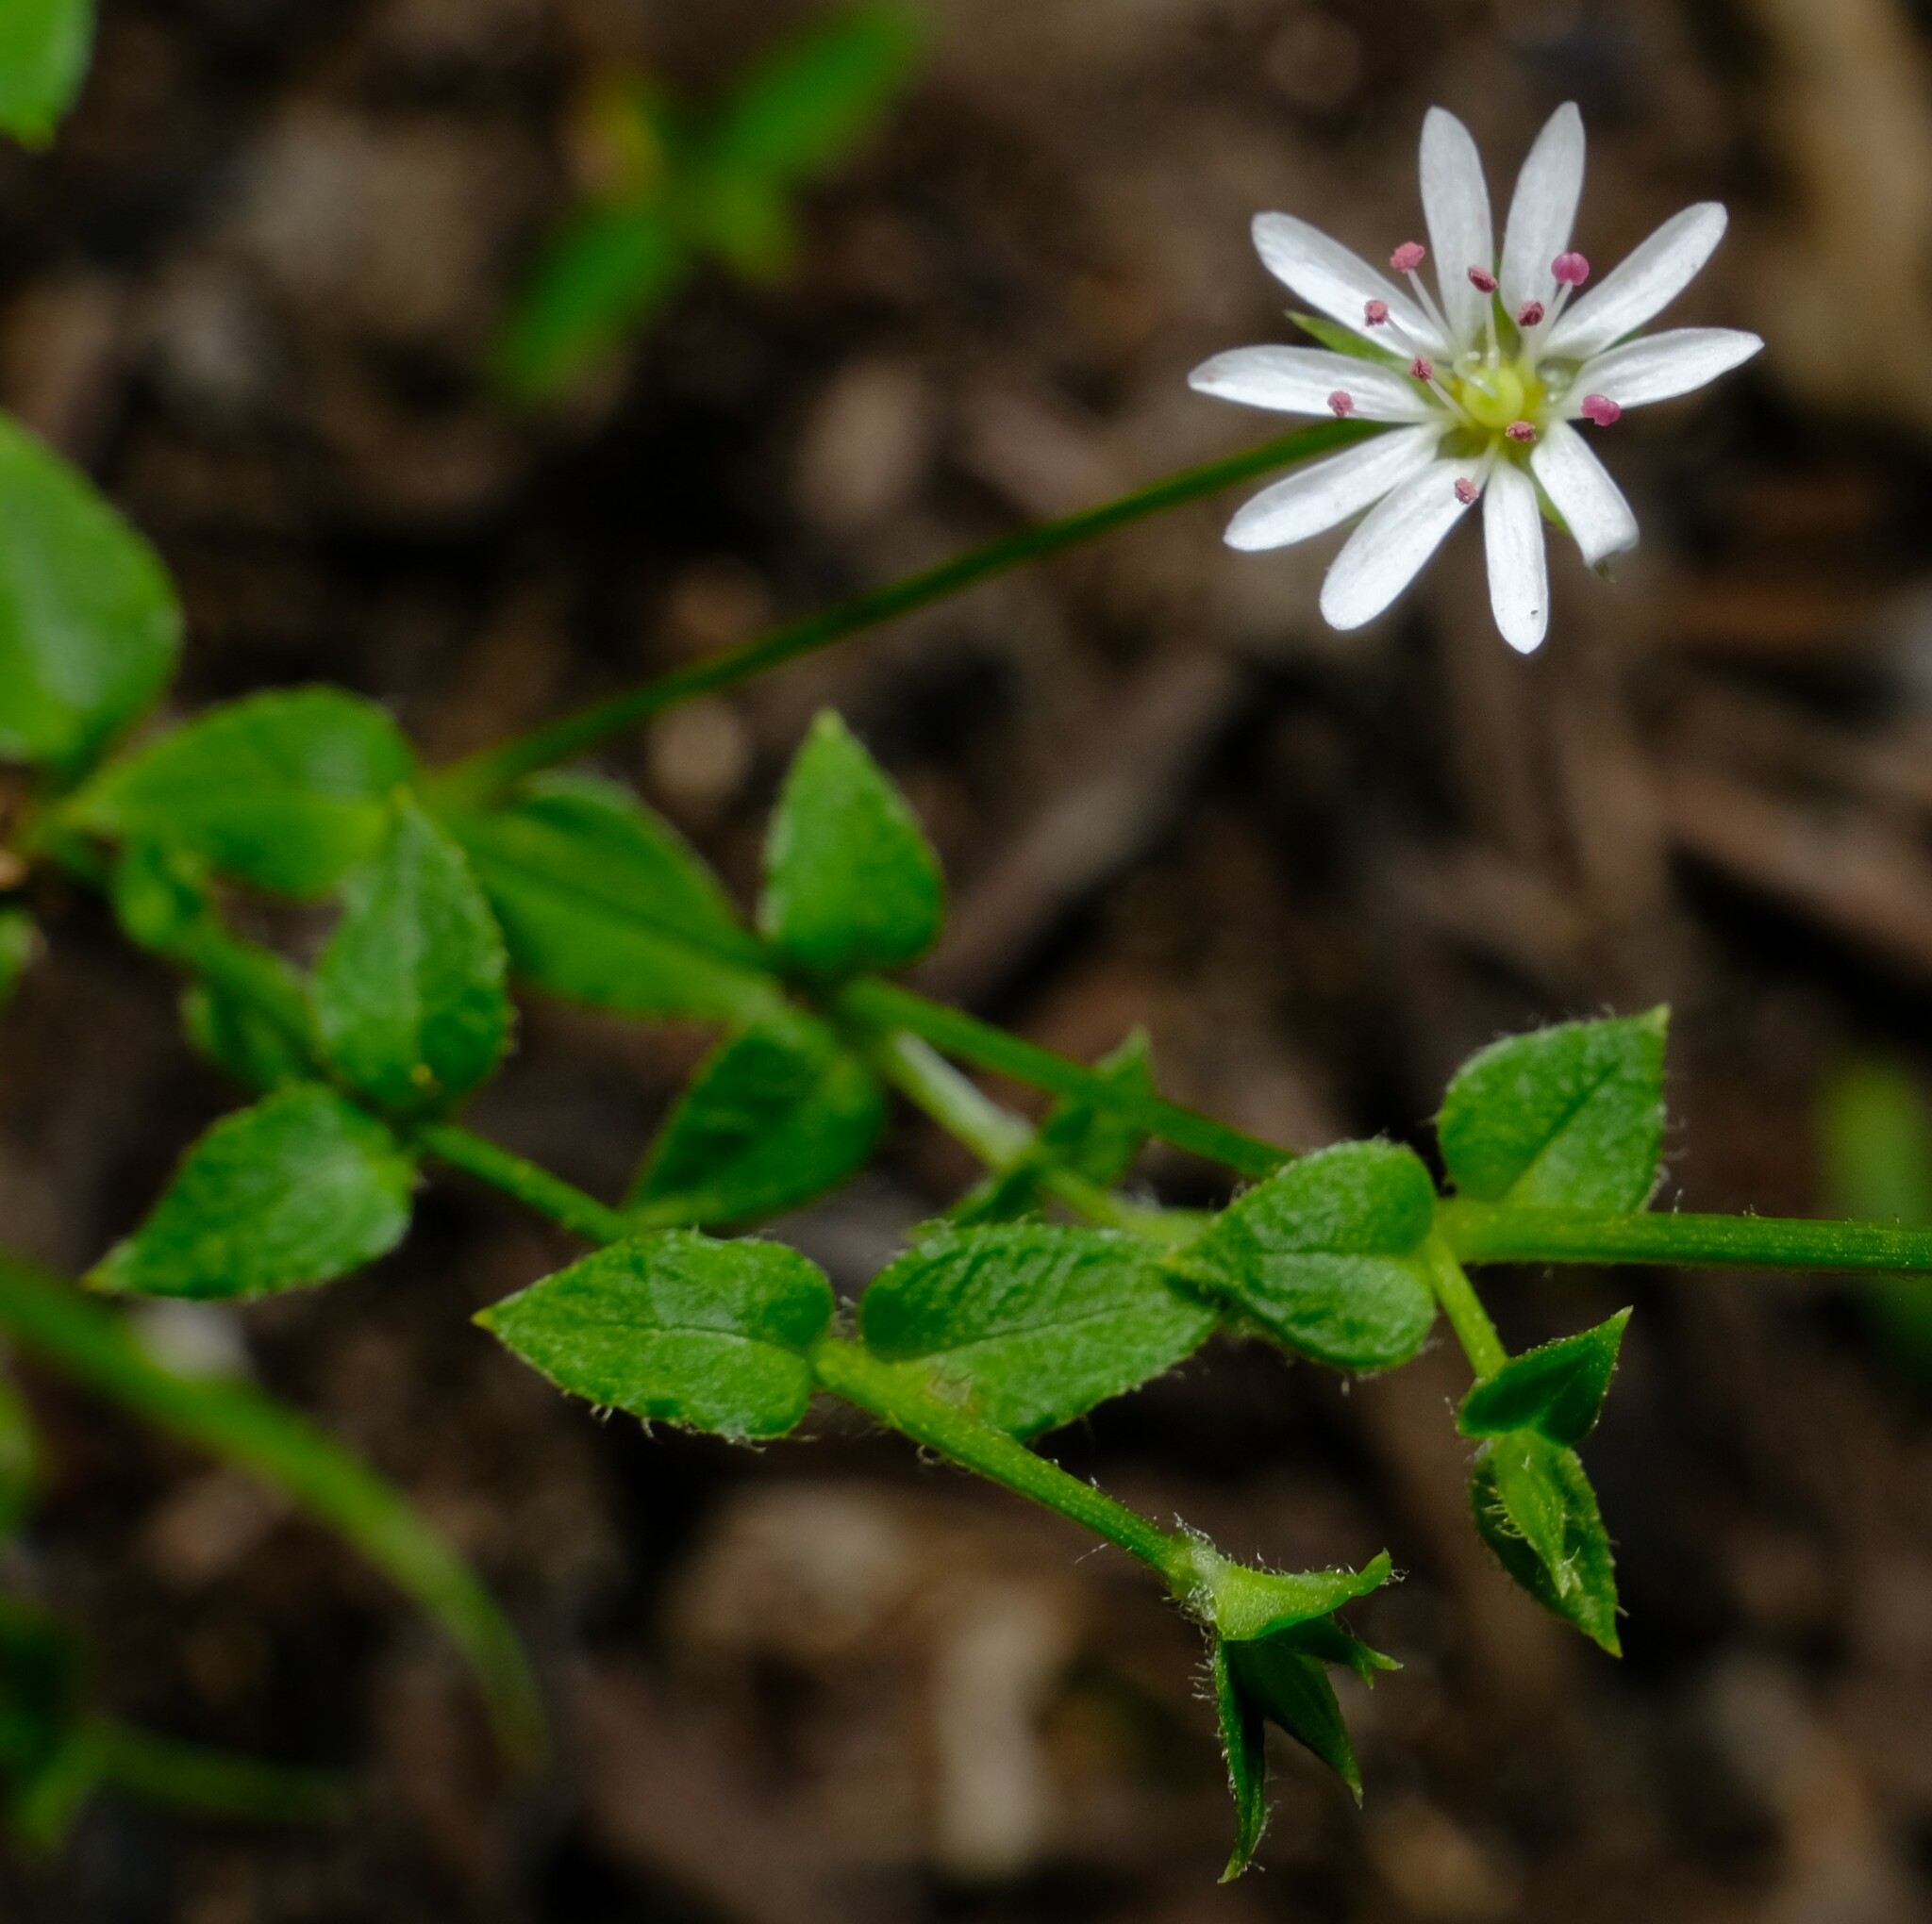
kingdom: Plantae
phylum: Tracheophyta
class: Magnoliopsida
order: Caryophyllales
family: Caryophyllaceae
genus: Stellaria
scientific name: Stellaria flaccida
